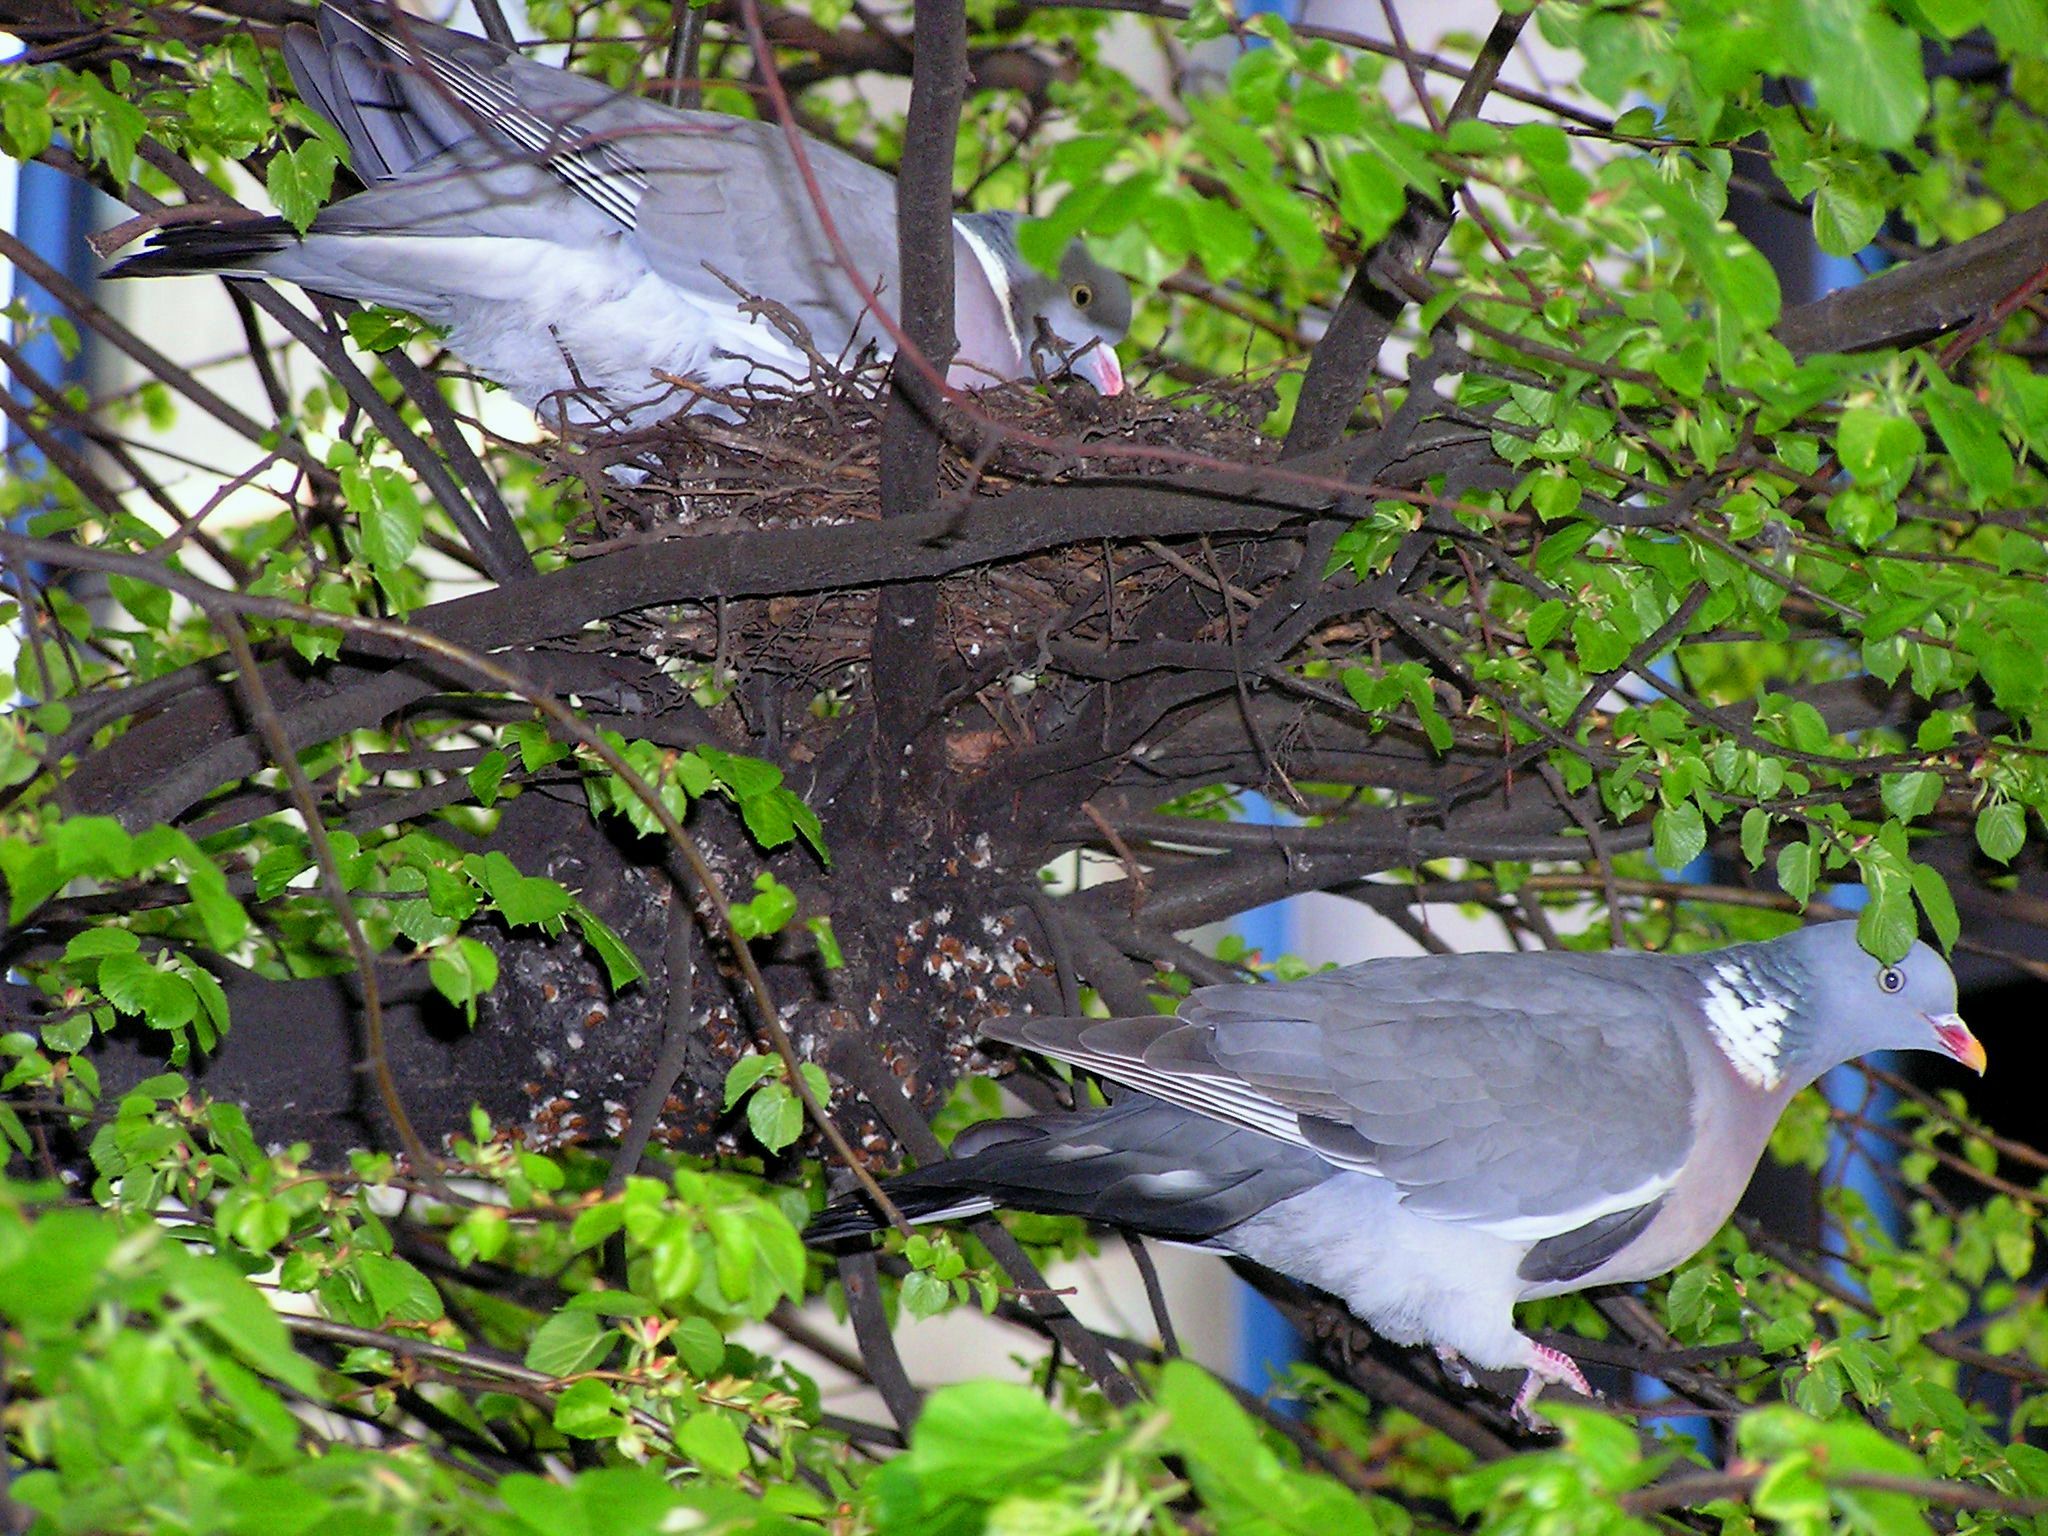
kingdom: Animalia
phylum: Chordata
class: Aves
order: Columbiformes
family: Columbidae
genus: Columba
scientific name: Columba palumbus
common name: Common wood pigeon
